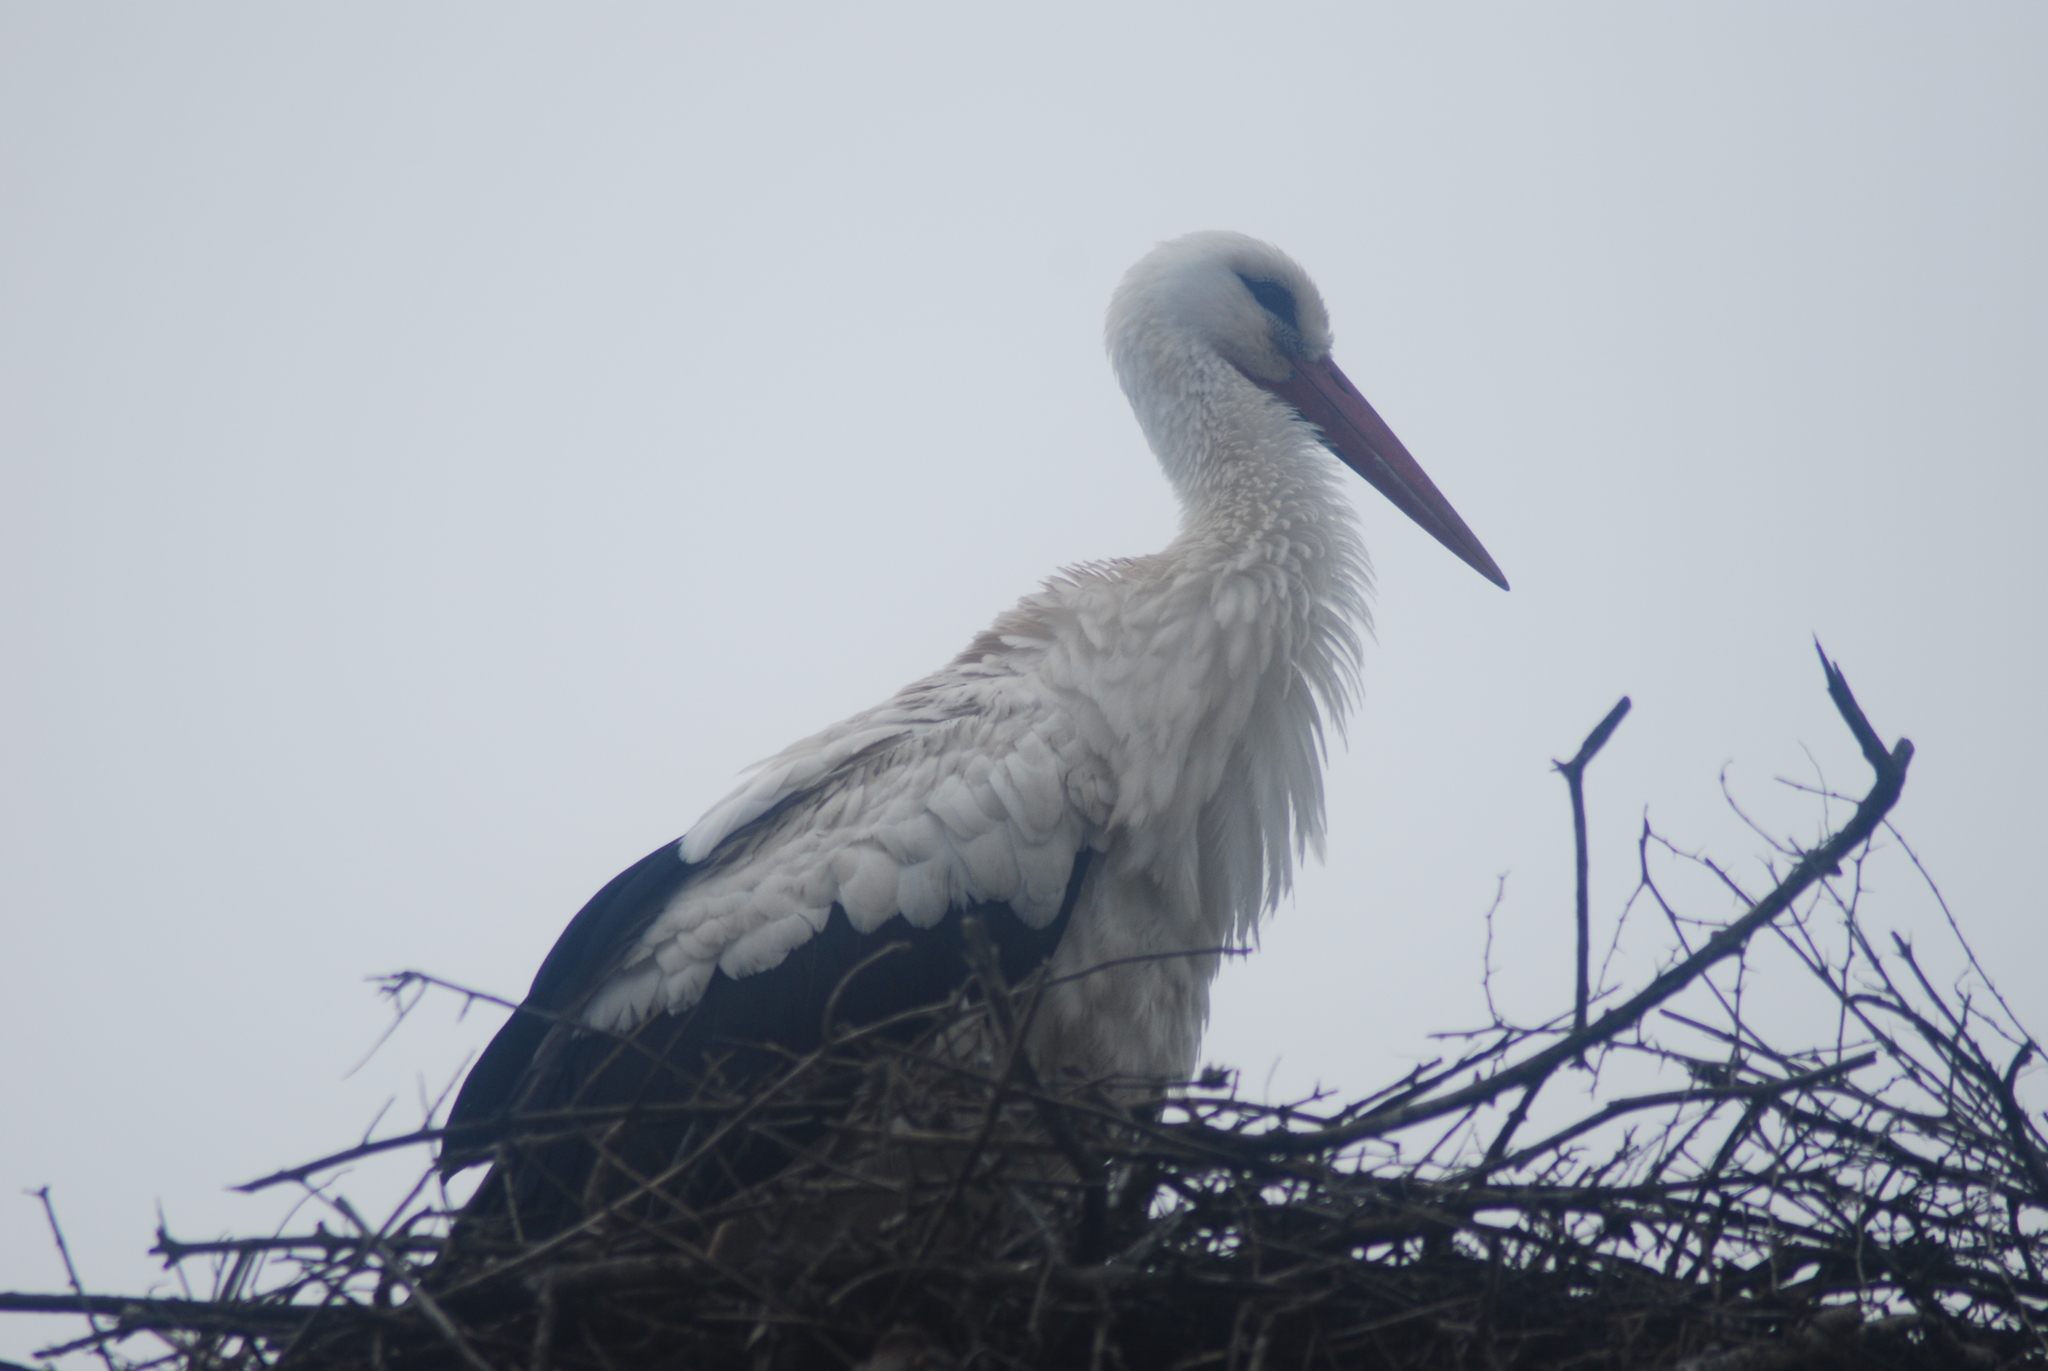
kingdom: Animalia
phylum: Chordata
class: Aves
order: Ciconiiformes
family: Ciconiidae
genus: Ciconia
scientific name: Ciconia ciconia
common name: White stork
